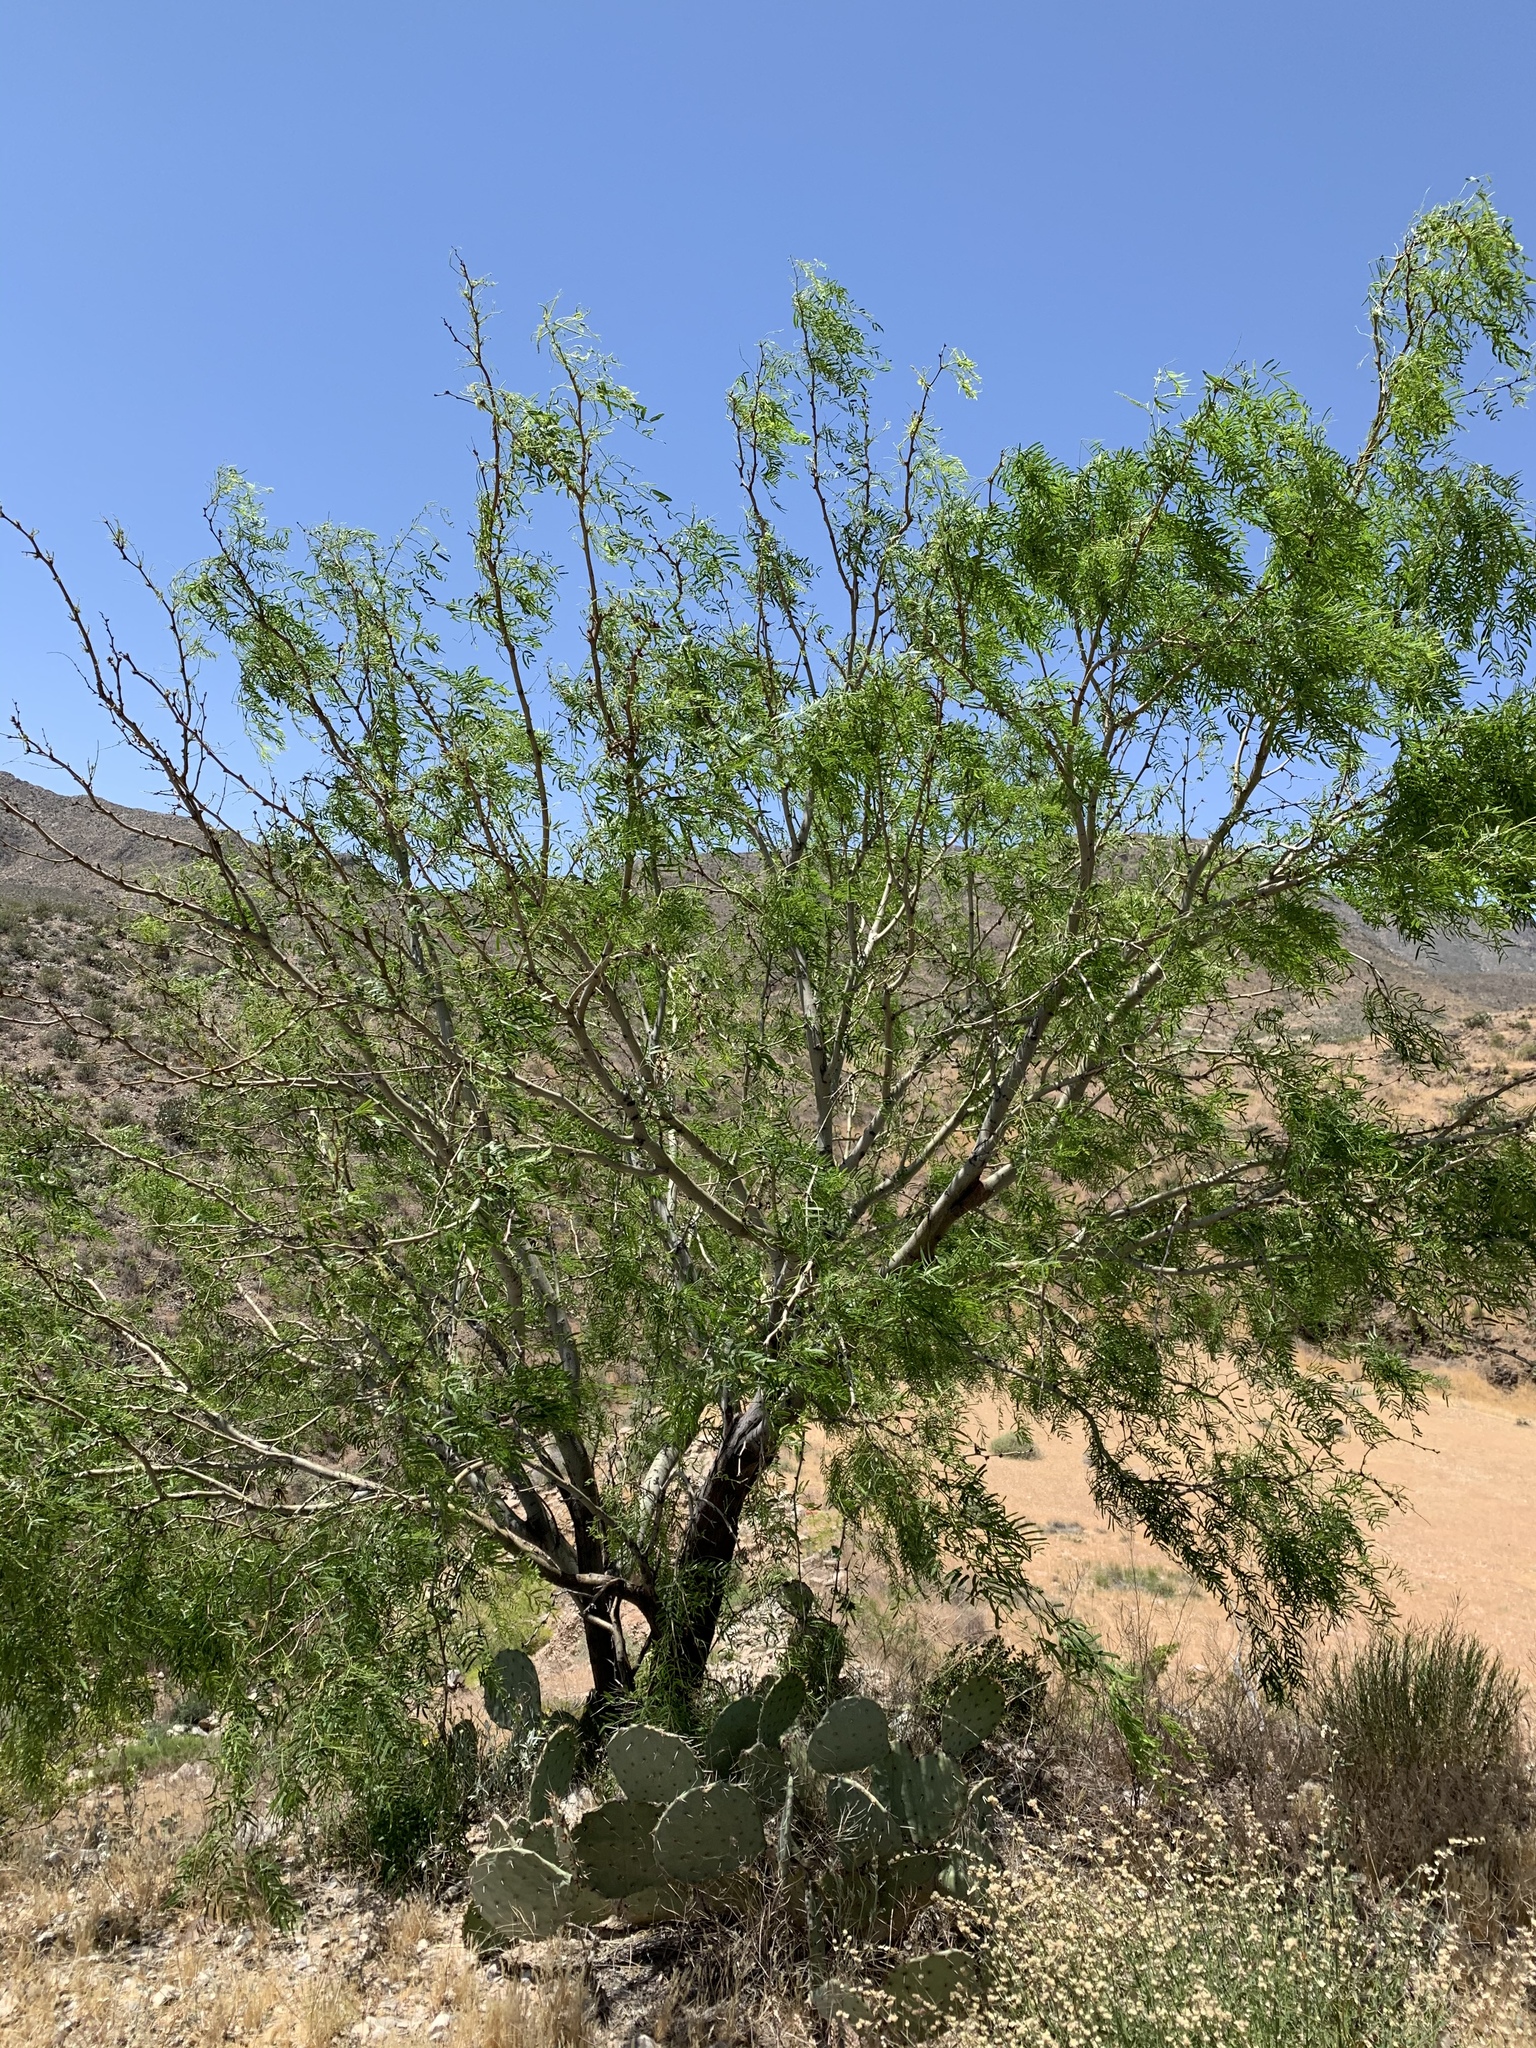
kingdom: Plantae
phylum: Tracheophyta
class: Magnoliopsida
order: Fabales
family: Fabaceae
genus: Prosopis
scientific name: Prosopis glandulosa
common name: Honey mesquite
